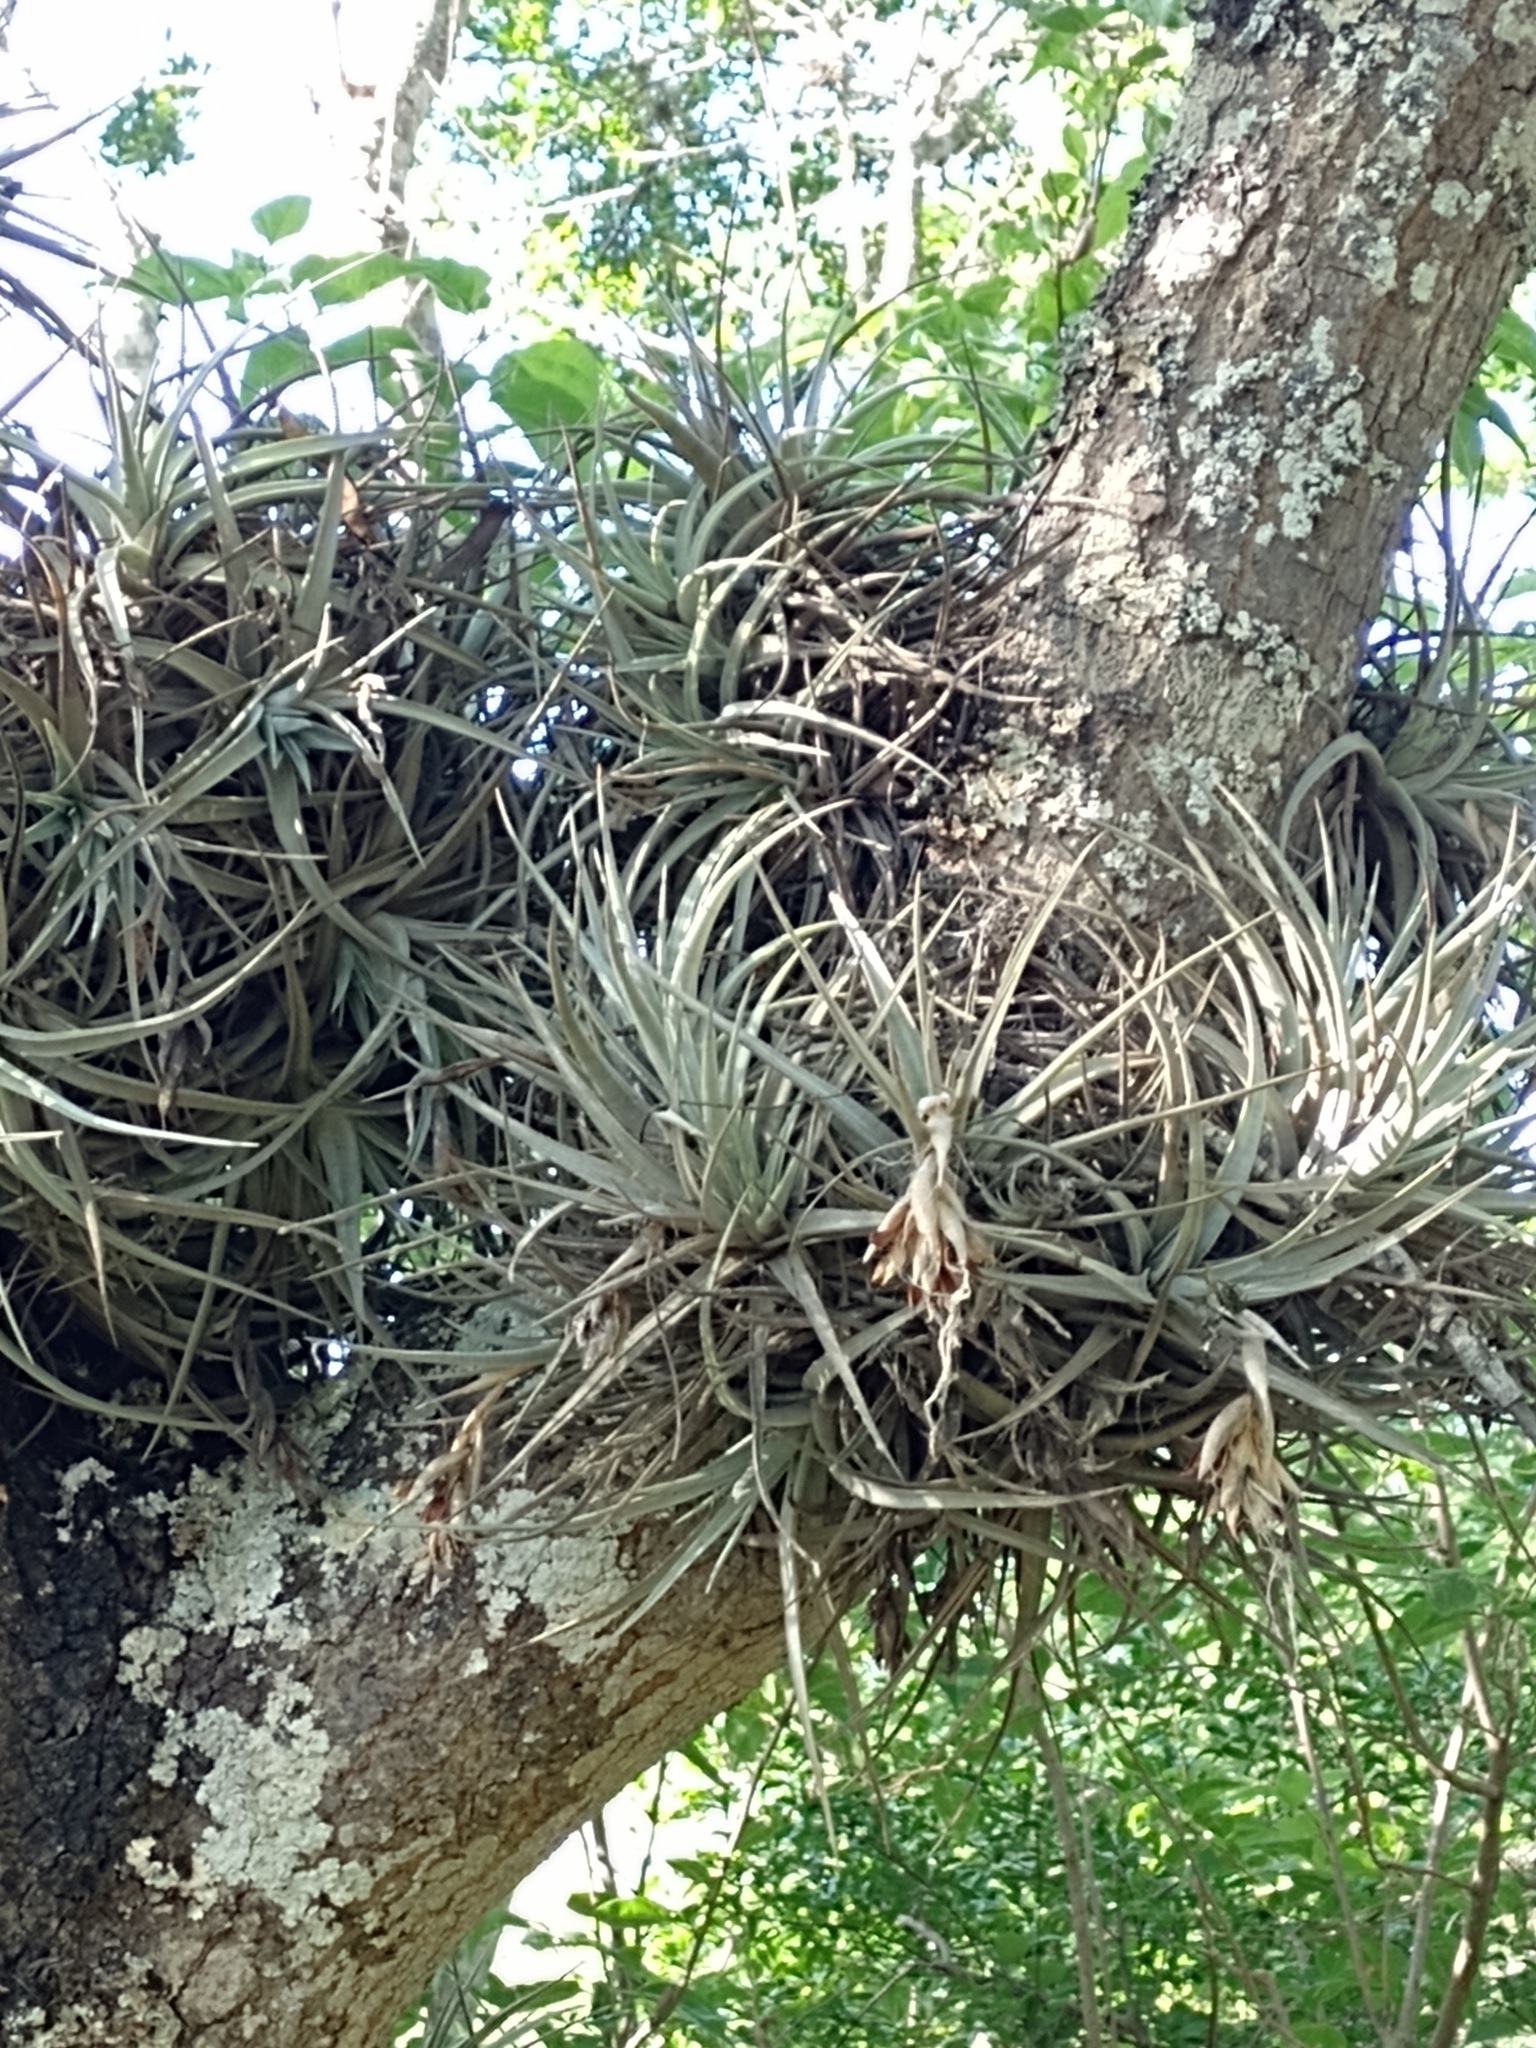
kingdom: Plantae
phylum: Tracheophyta
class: Liliopsida
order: Poales
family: Bromeliaceae
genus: Tillandsia
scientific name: Tillandsia ixioides
